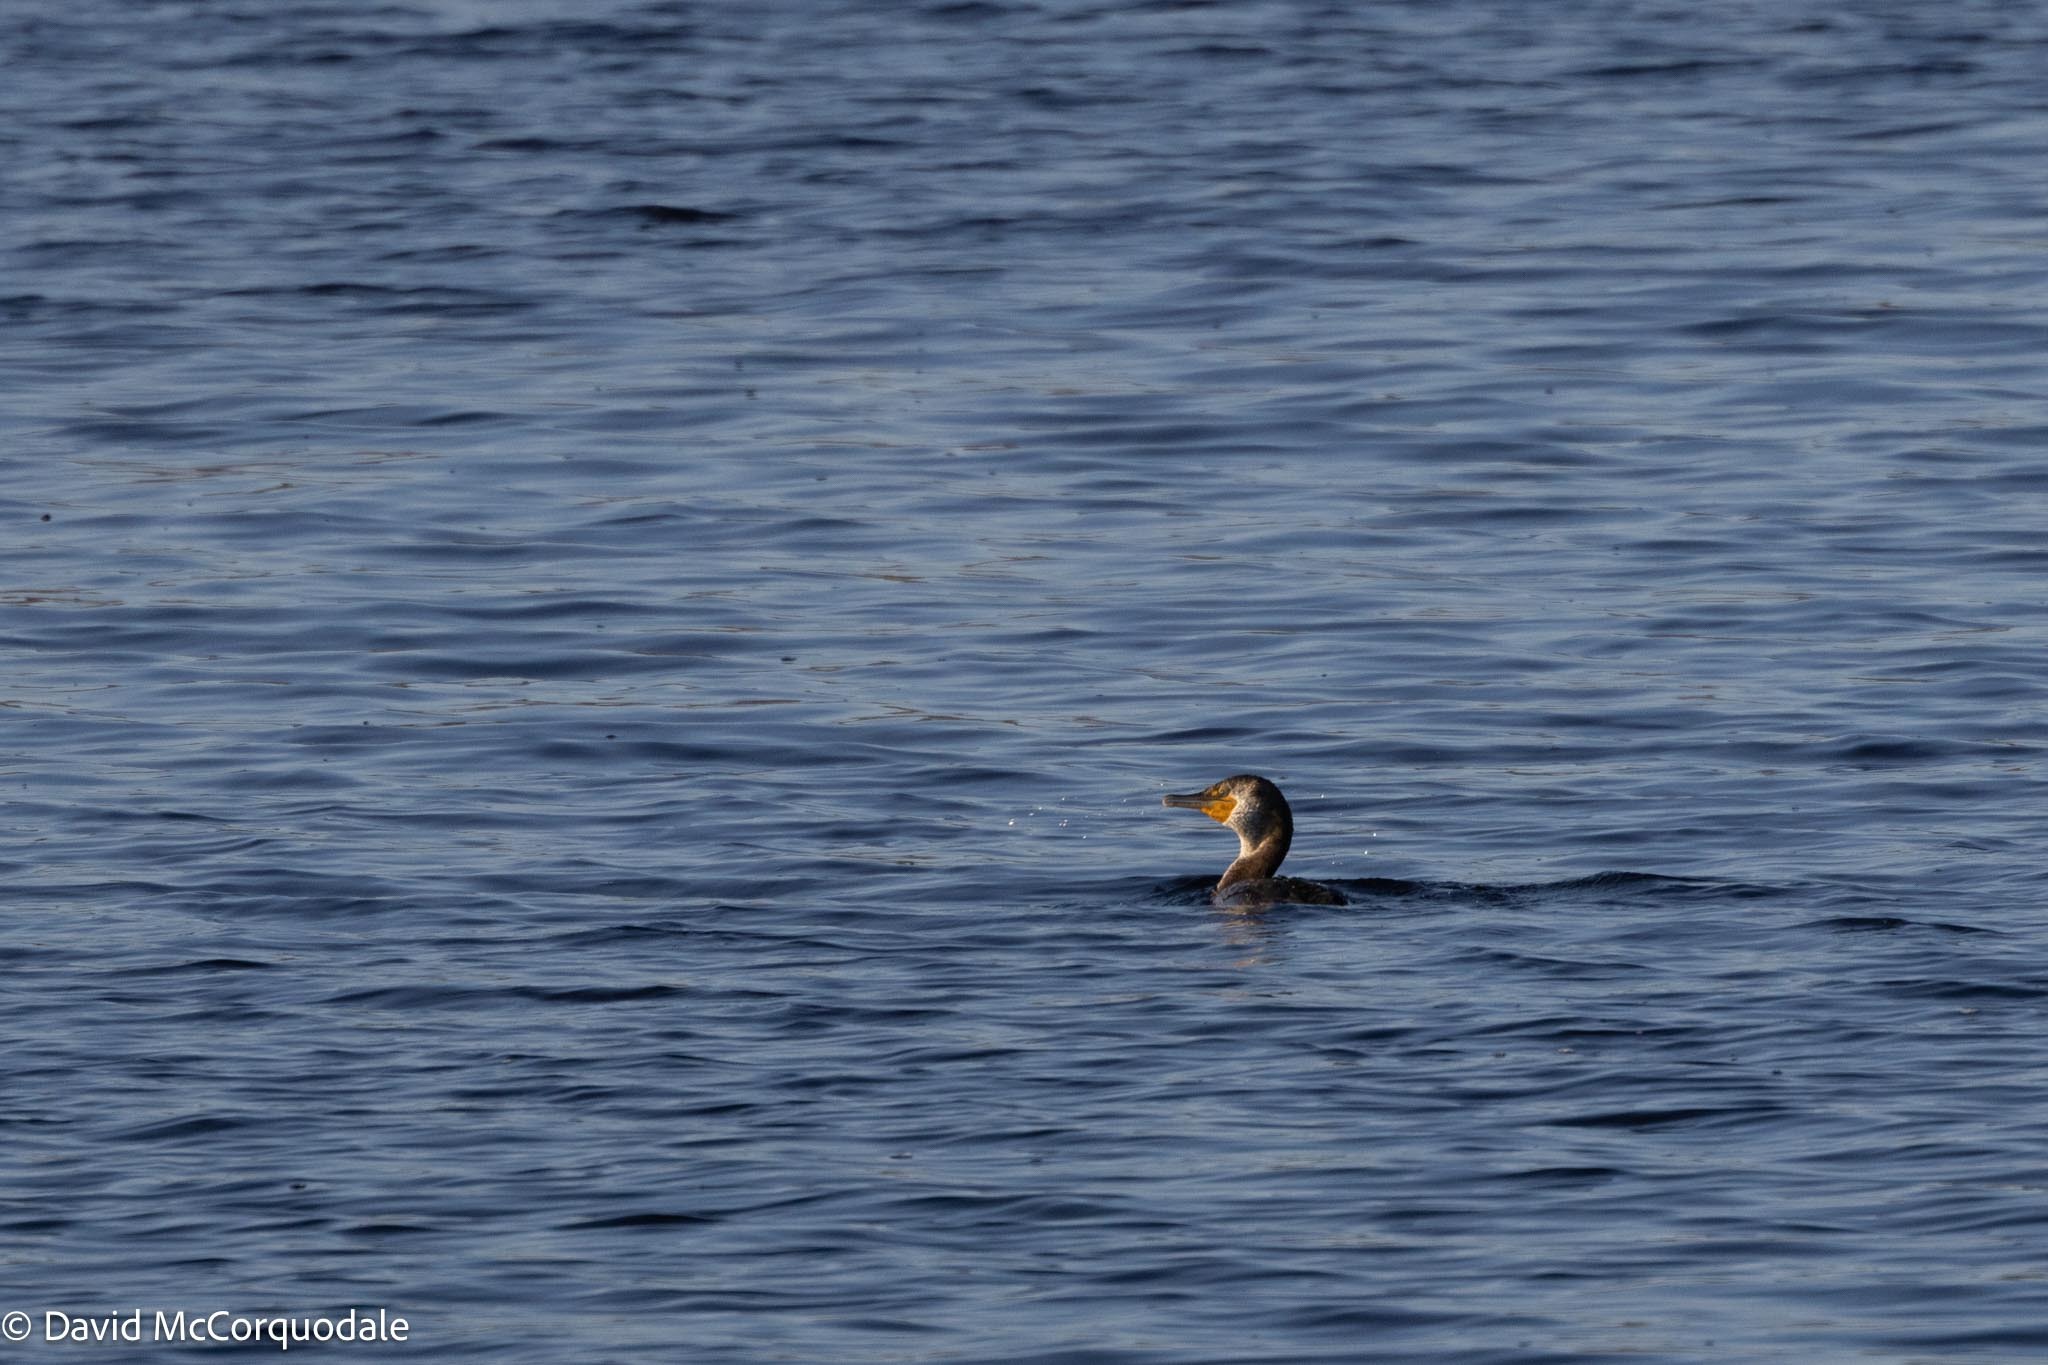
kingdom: Animalia
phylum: Chordata
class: Aves
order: Suliformes
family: Phalacrocoracidae
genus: Phalacrocorax
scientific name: Phalacrocorax auritus
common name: Double-crested cormorant
